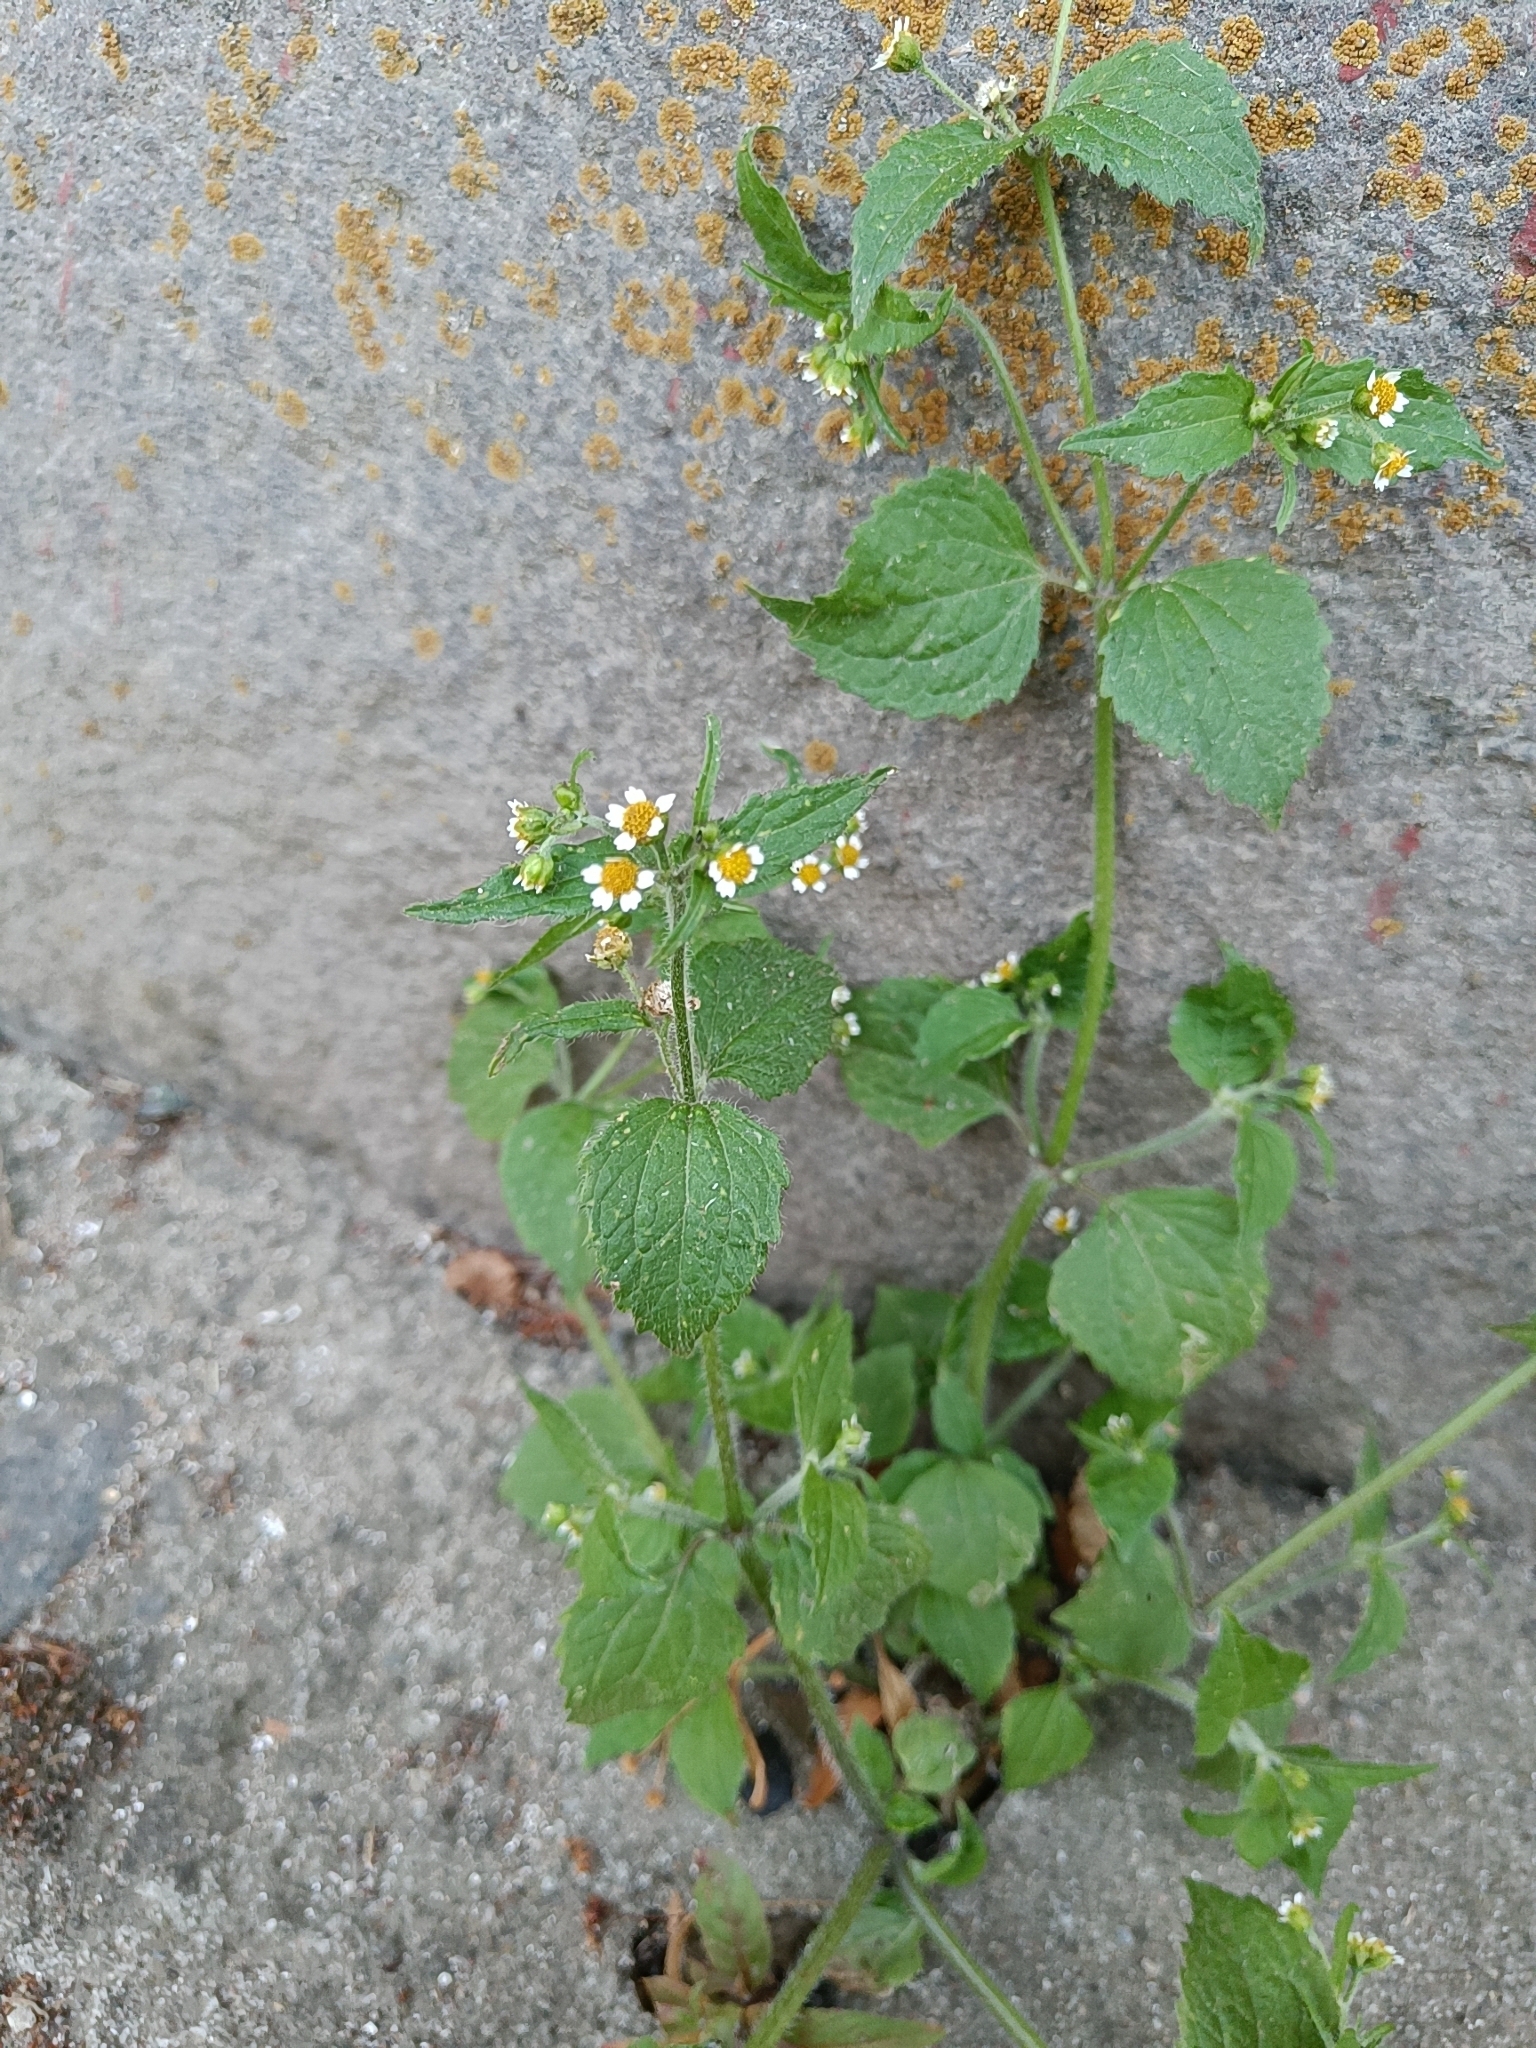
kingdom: Plantae
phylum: Tracheophyta
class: Magnoliopsida
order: Asterales
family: Asteraceae
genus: Galinsoga
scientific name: Galinsoga quadriradiata
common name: Shaggy soldier
